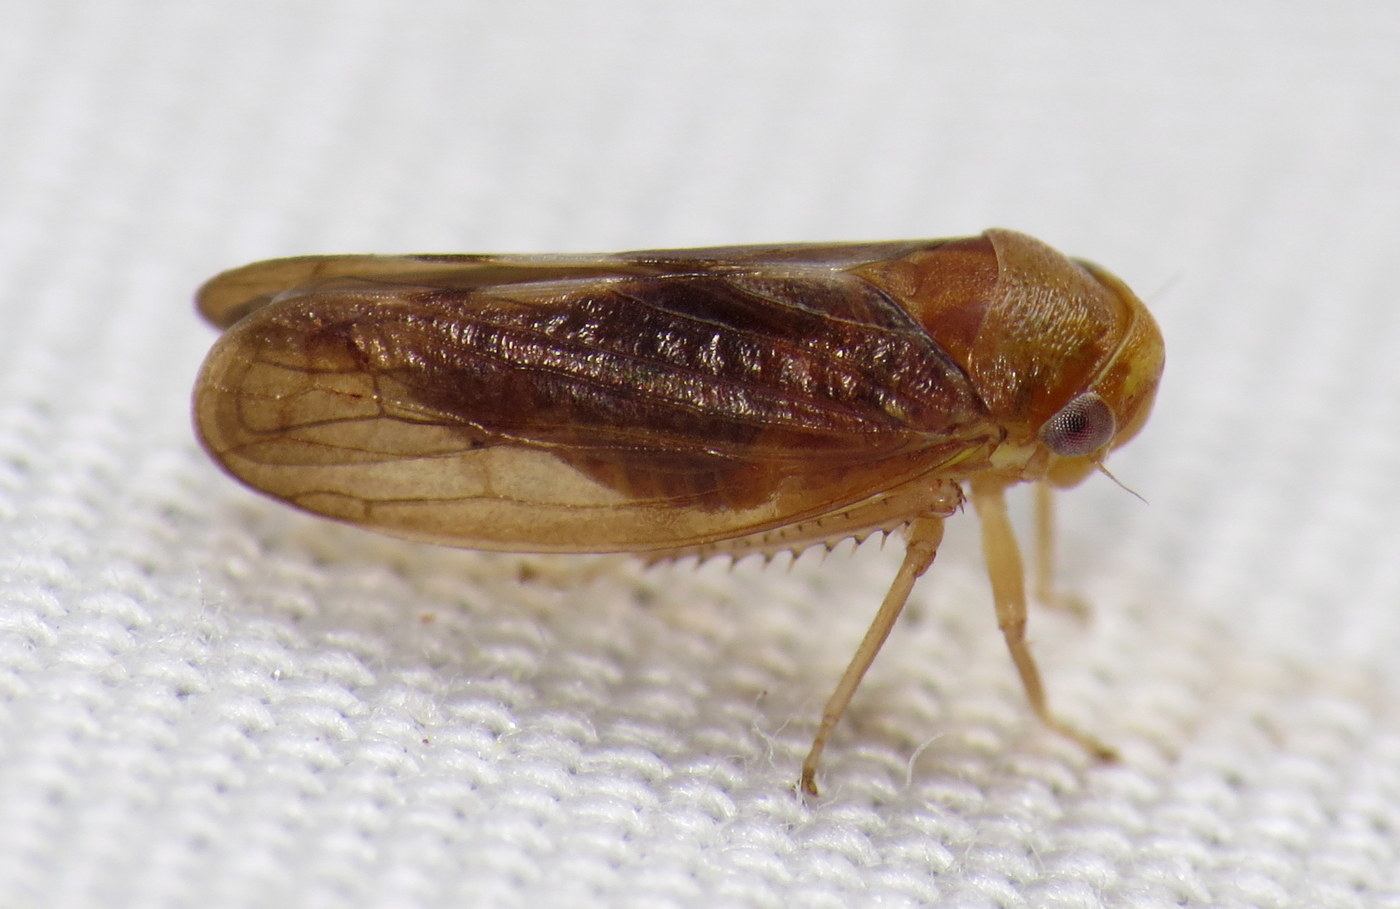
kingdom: Animalia
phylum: Arthropoda
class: Insecta
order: Hemiptera
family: Cicadellidae
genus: Oncopsis
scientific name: Oncopsis sobria
